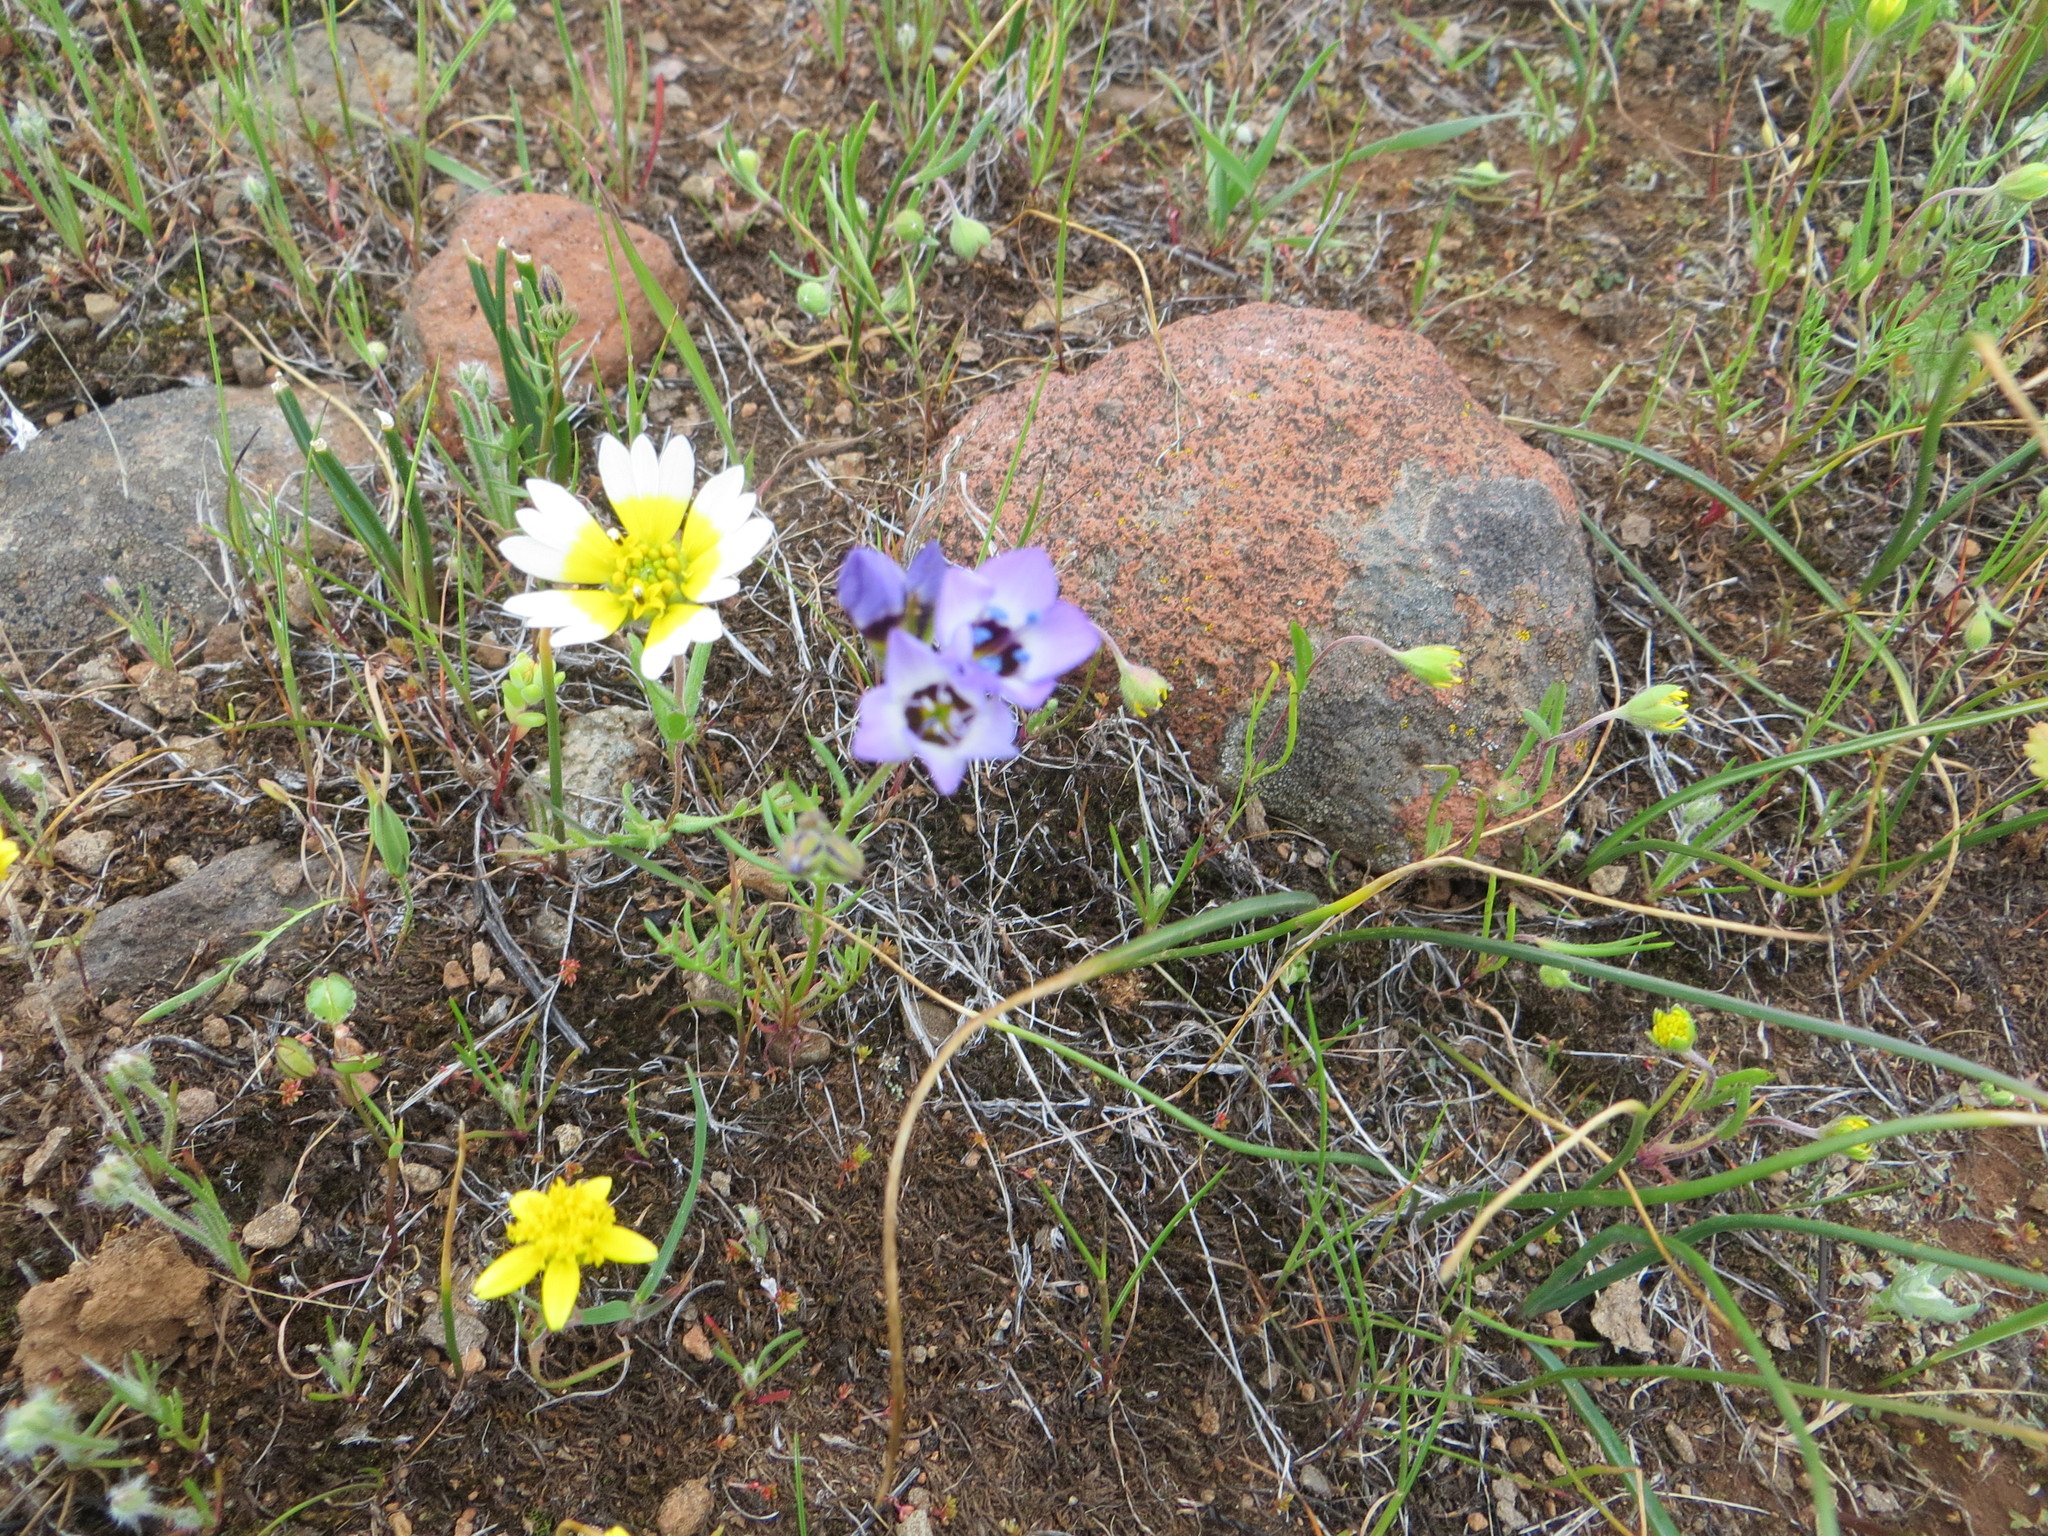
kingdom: Plantae
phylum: Tracheophyta
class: Magnoliopsida
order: Ericales
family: Polemoniaceae
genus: Gilia
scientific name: Gilia tricolor
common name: Bird's-eyes
